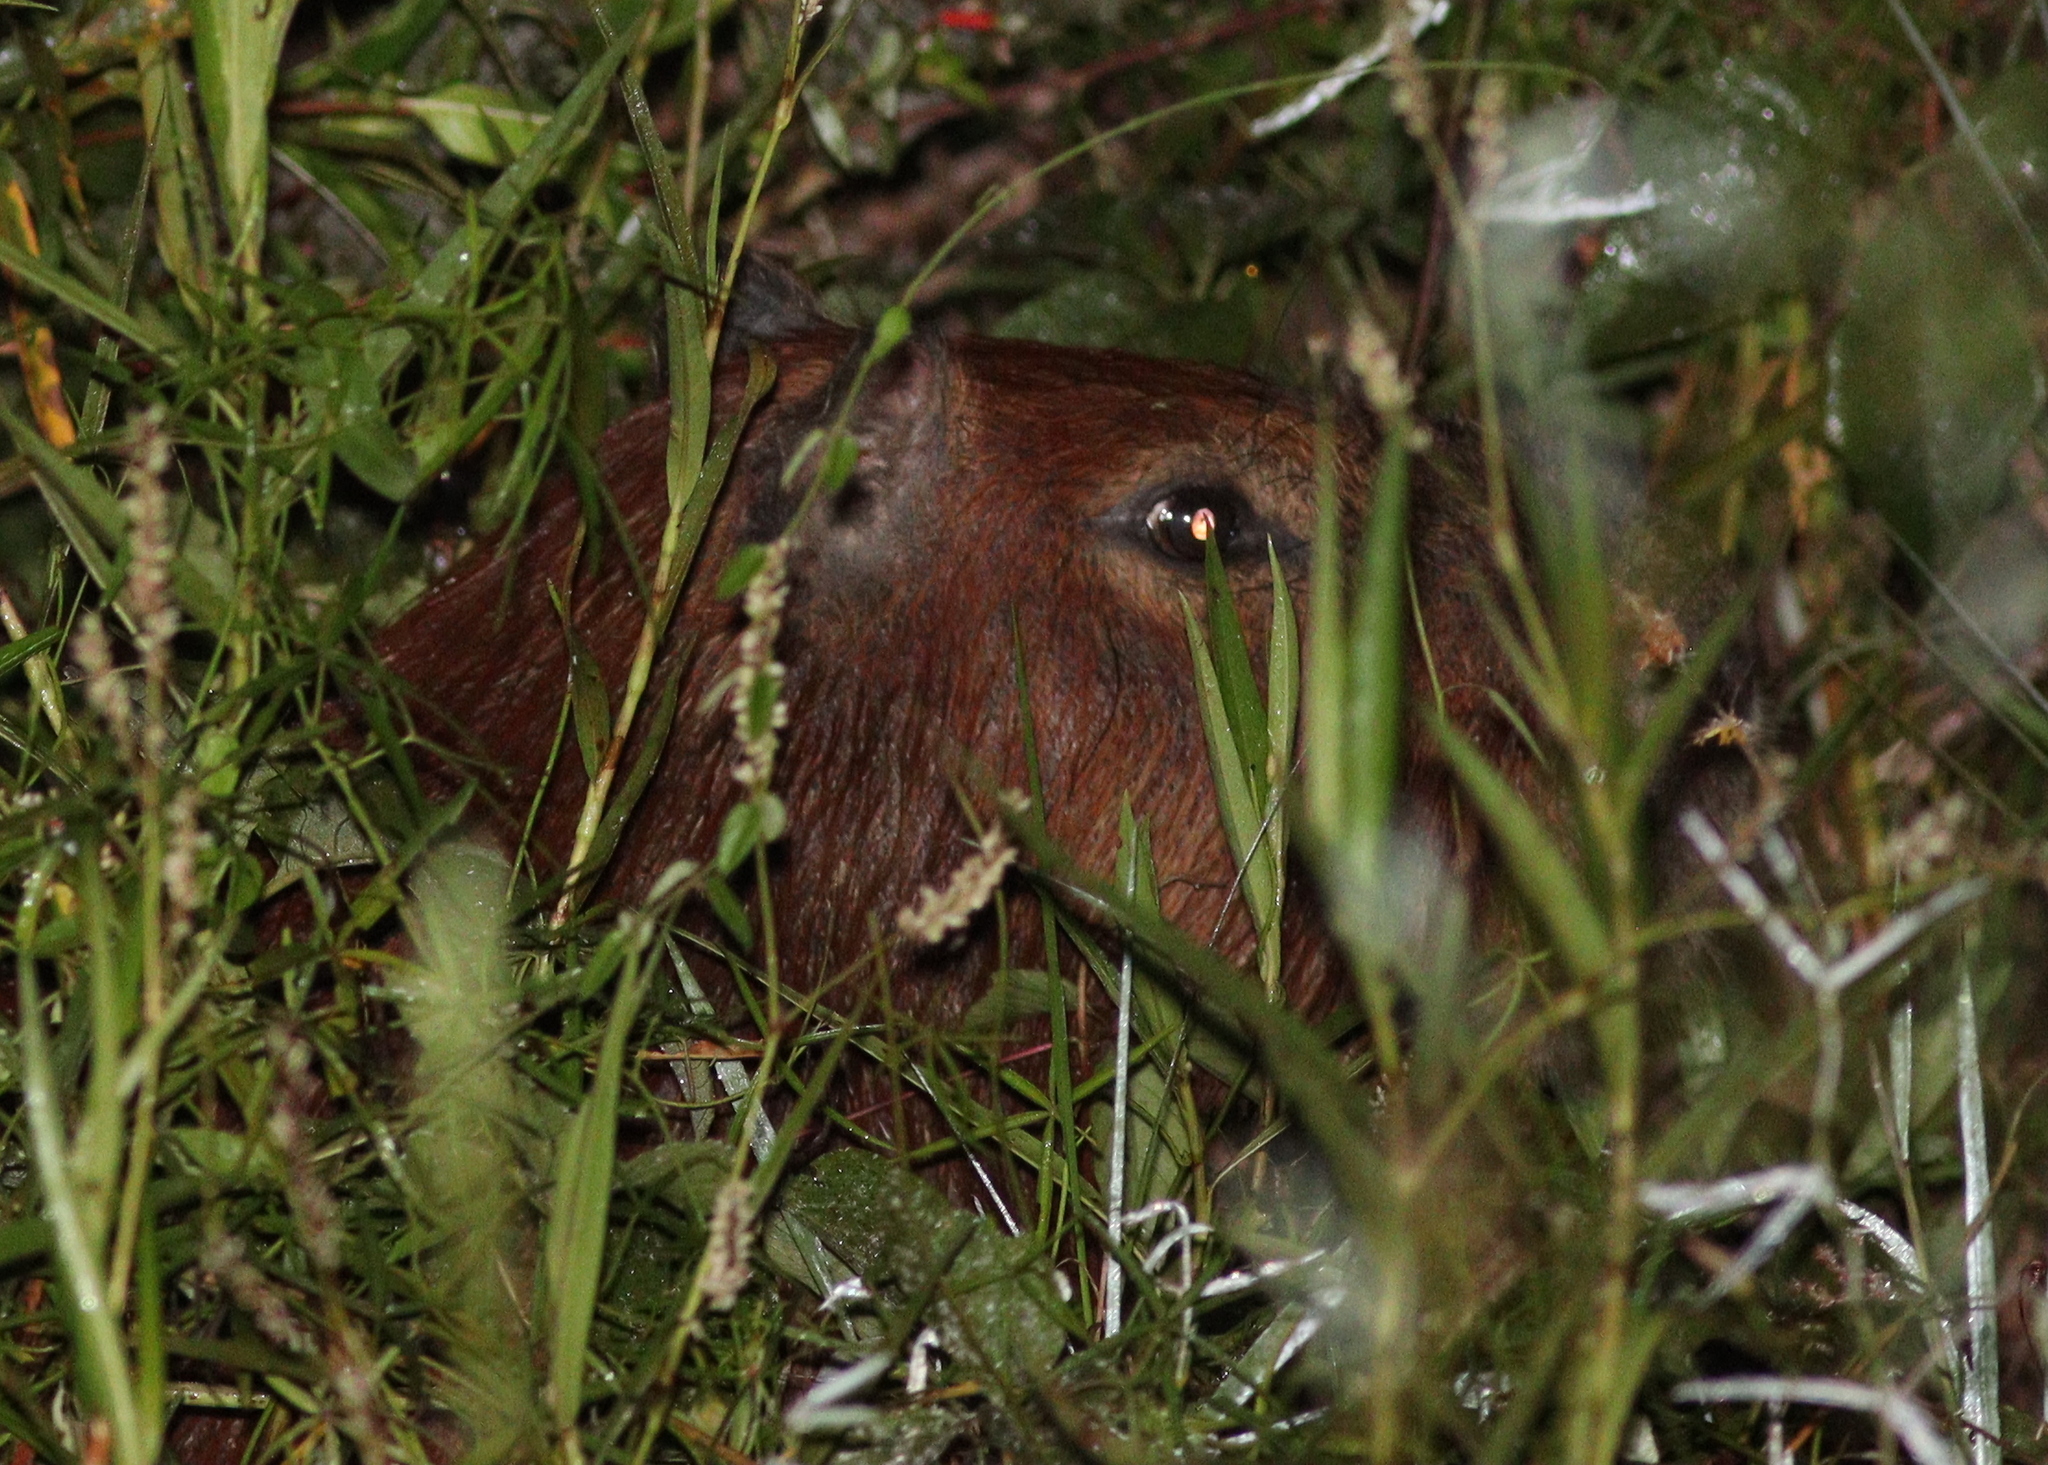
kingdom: Animalia
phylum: Chordata
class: Mammalia
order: Rodentia
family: Caviidae
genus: Hydrochoerus
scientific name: Hydrochoerus hydrochaeris
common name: Capybara
